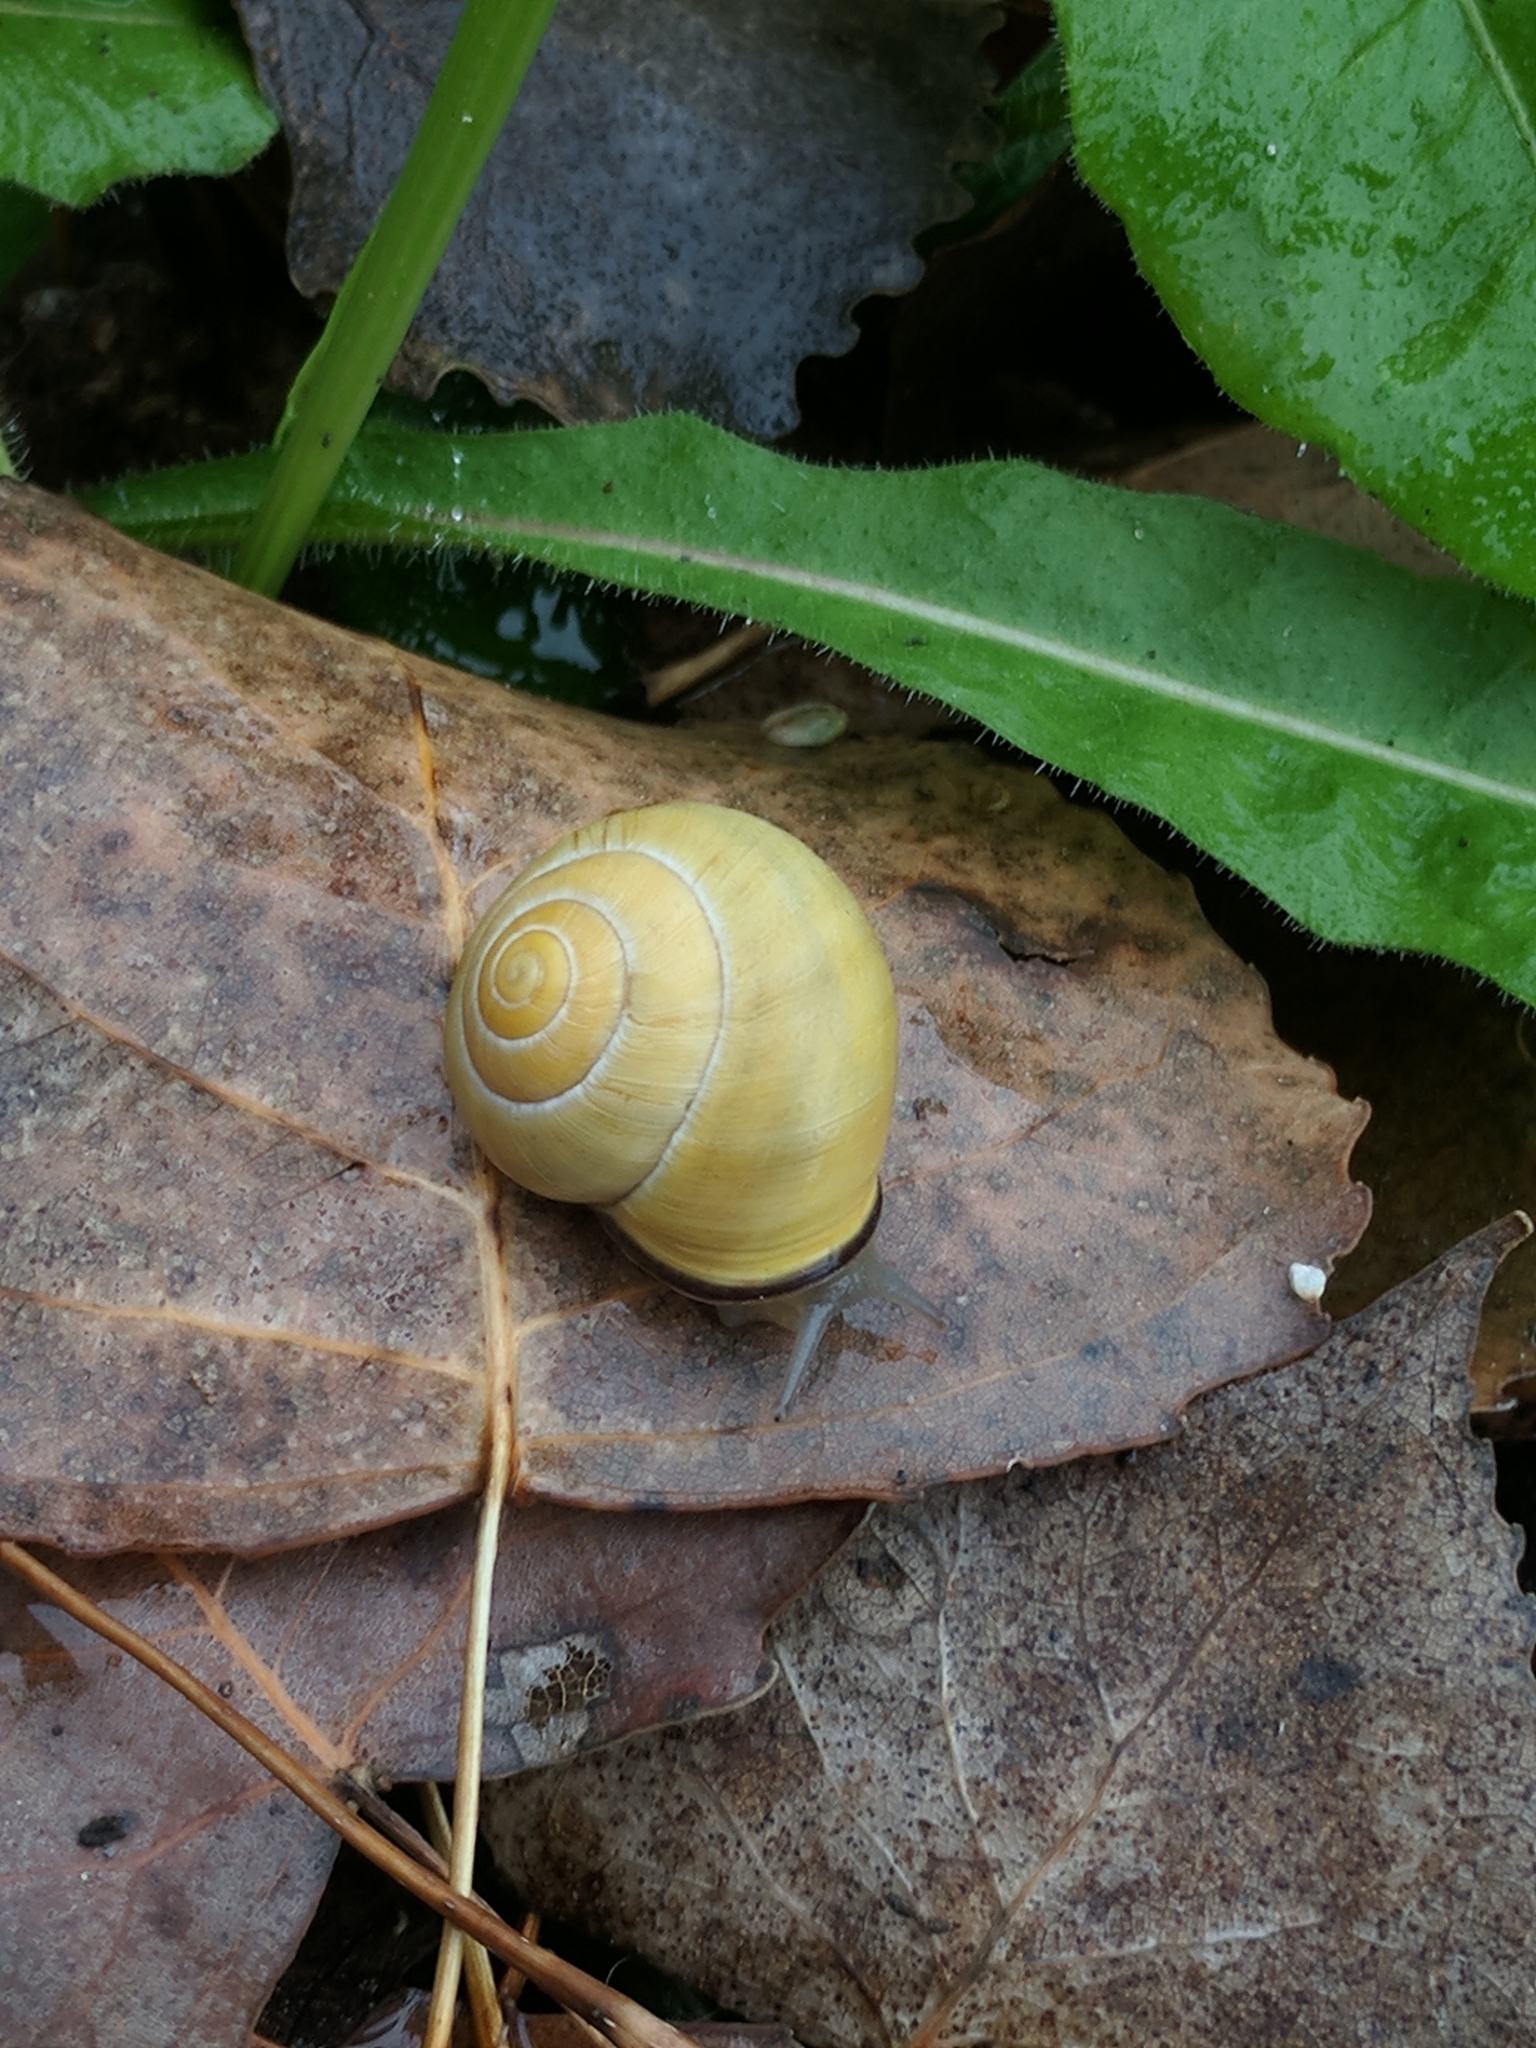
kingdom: Animalia
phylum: Mollusca
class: Gastropoda
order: Stylommatophora
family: Helicidae
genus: Cepaea
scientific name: Cepaea nemoralis
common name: Grovesnail
